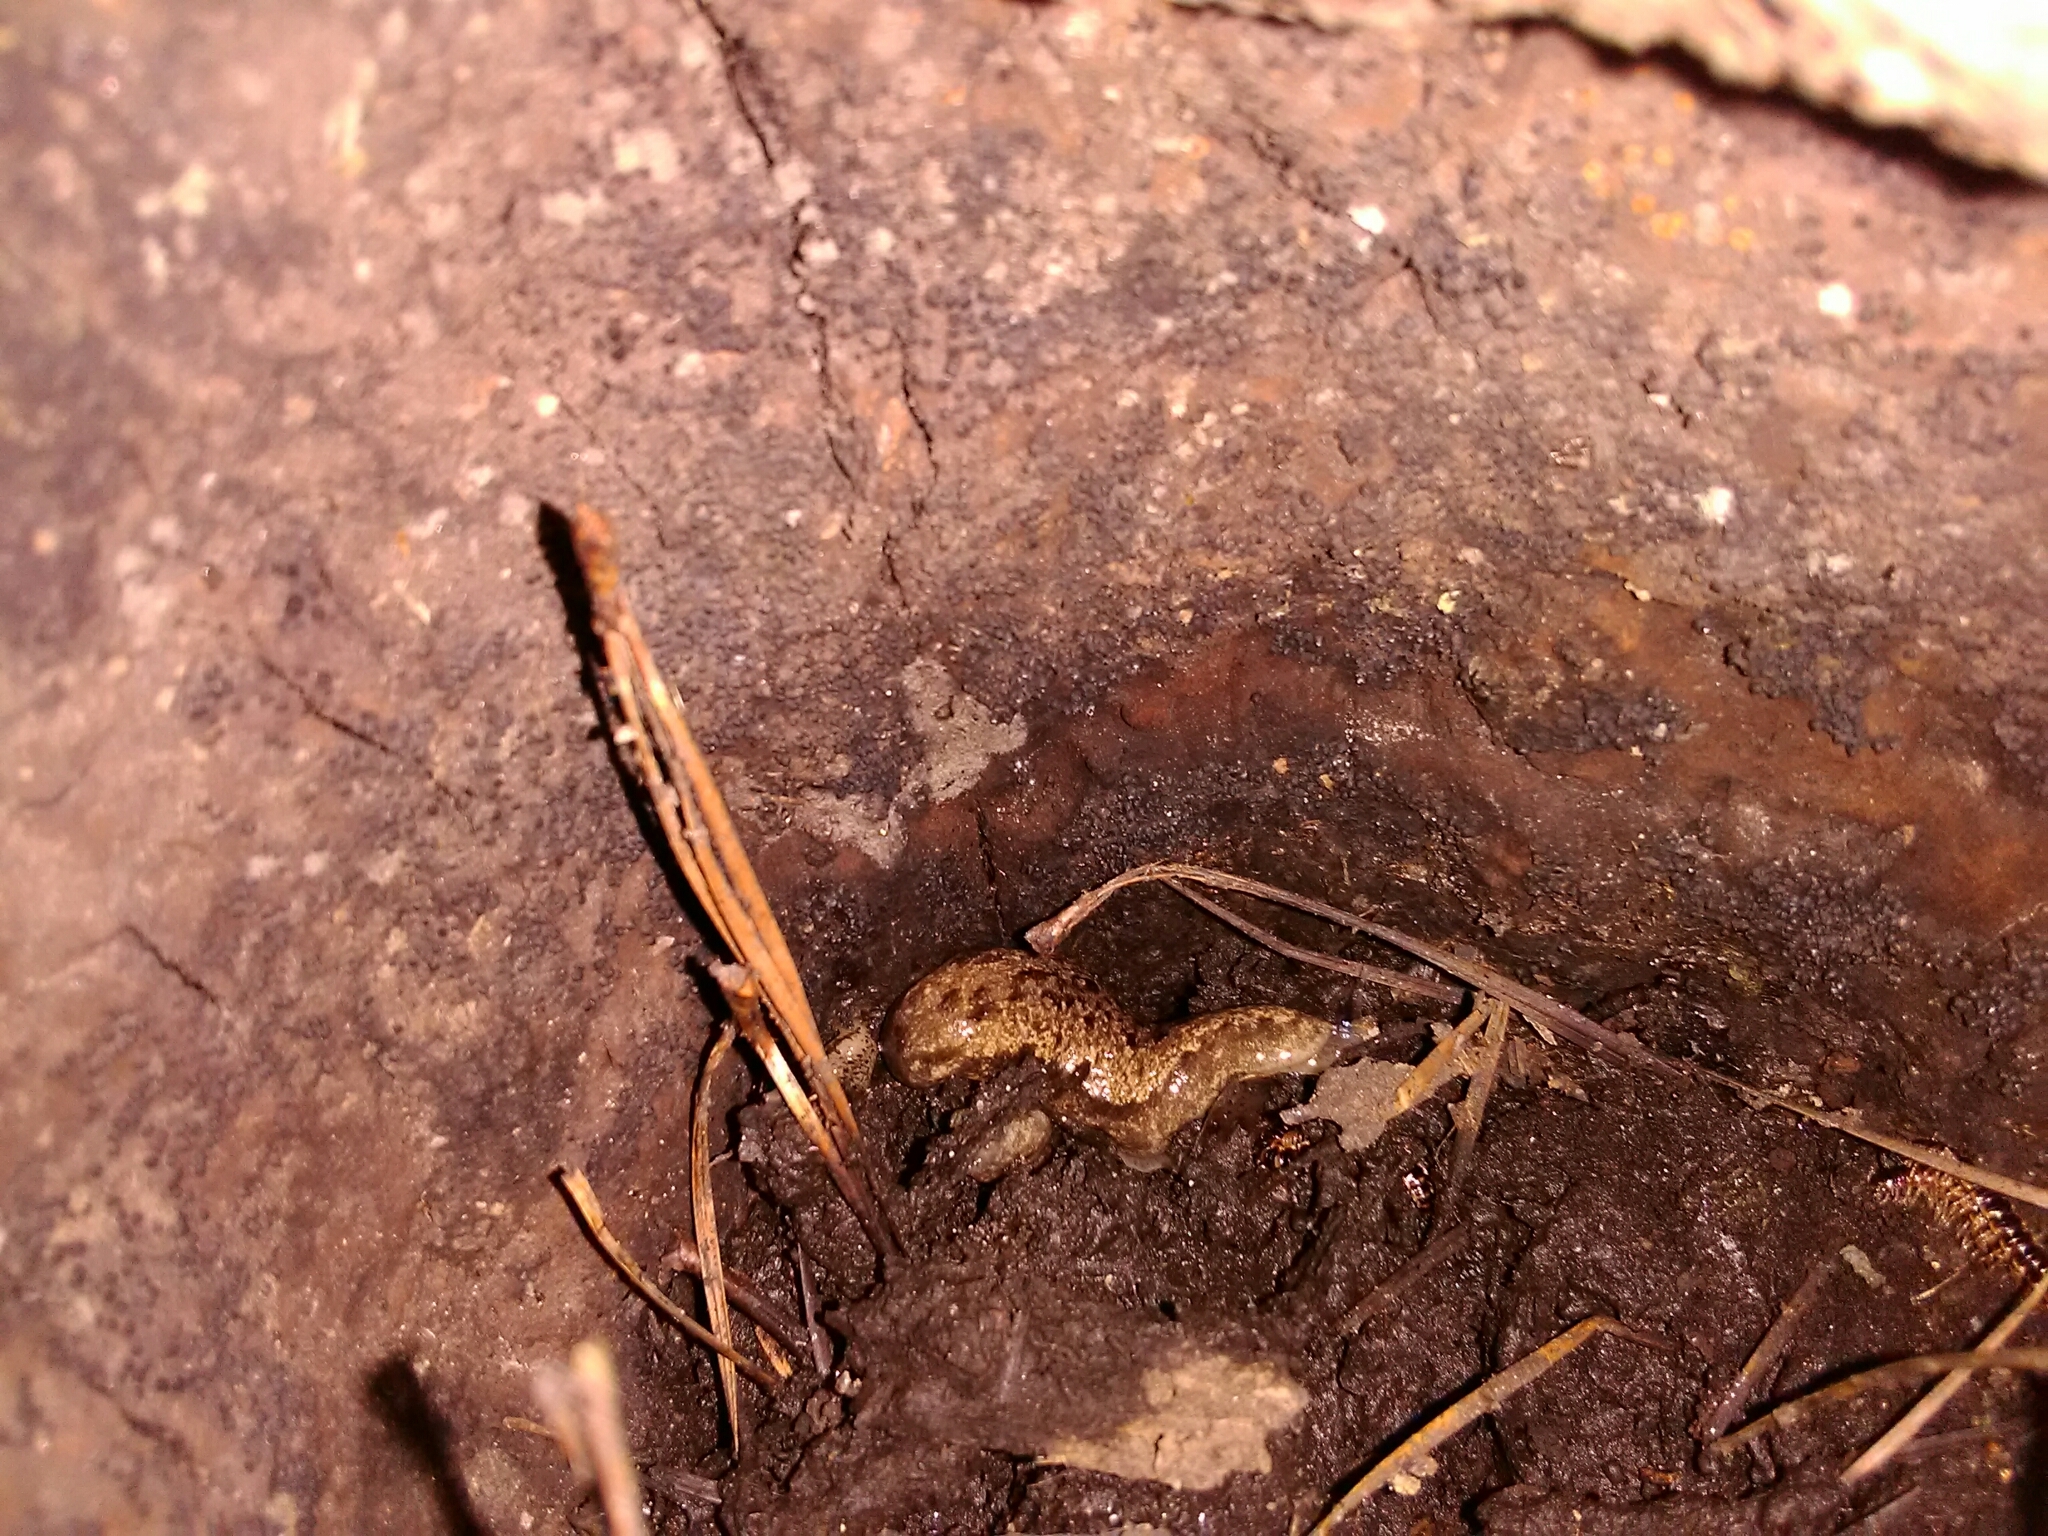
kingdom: Animalia
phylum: Mollusca
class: Gastropoda
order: Stylommatophora
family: Philomycidae
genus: Megapallifera
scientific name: Megapallifera mutabilis
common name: Changeable mantleslug
